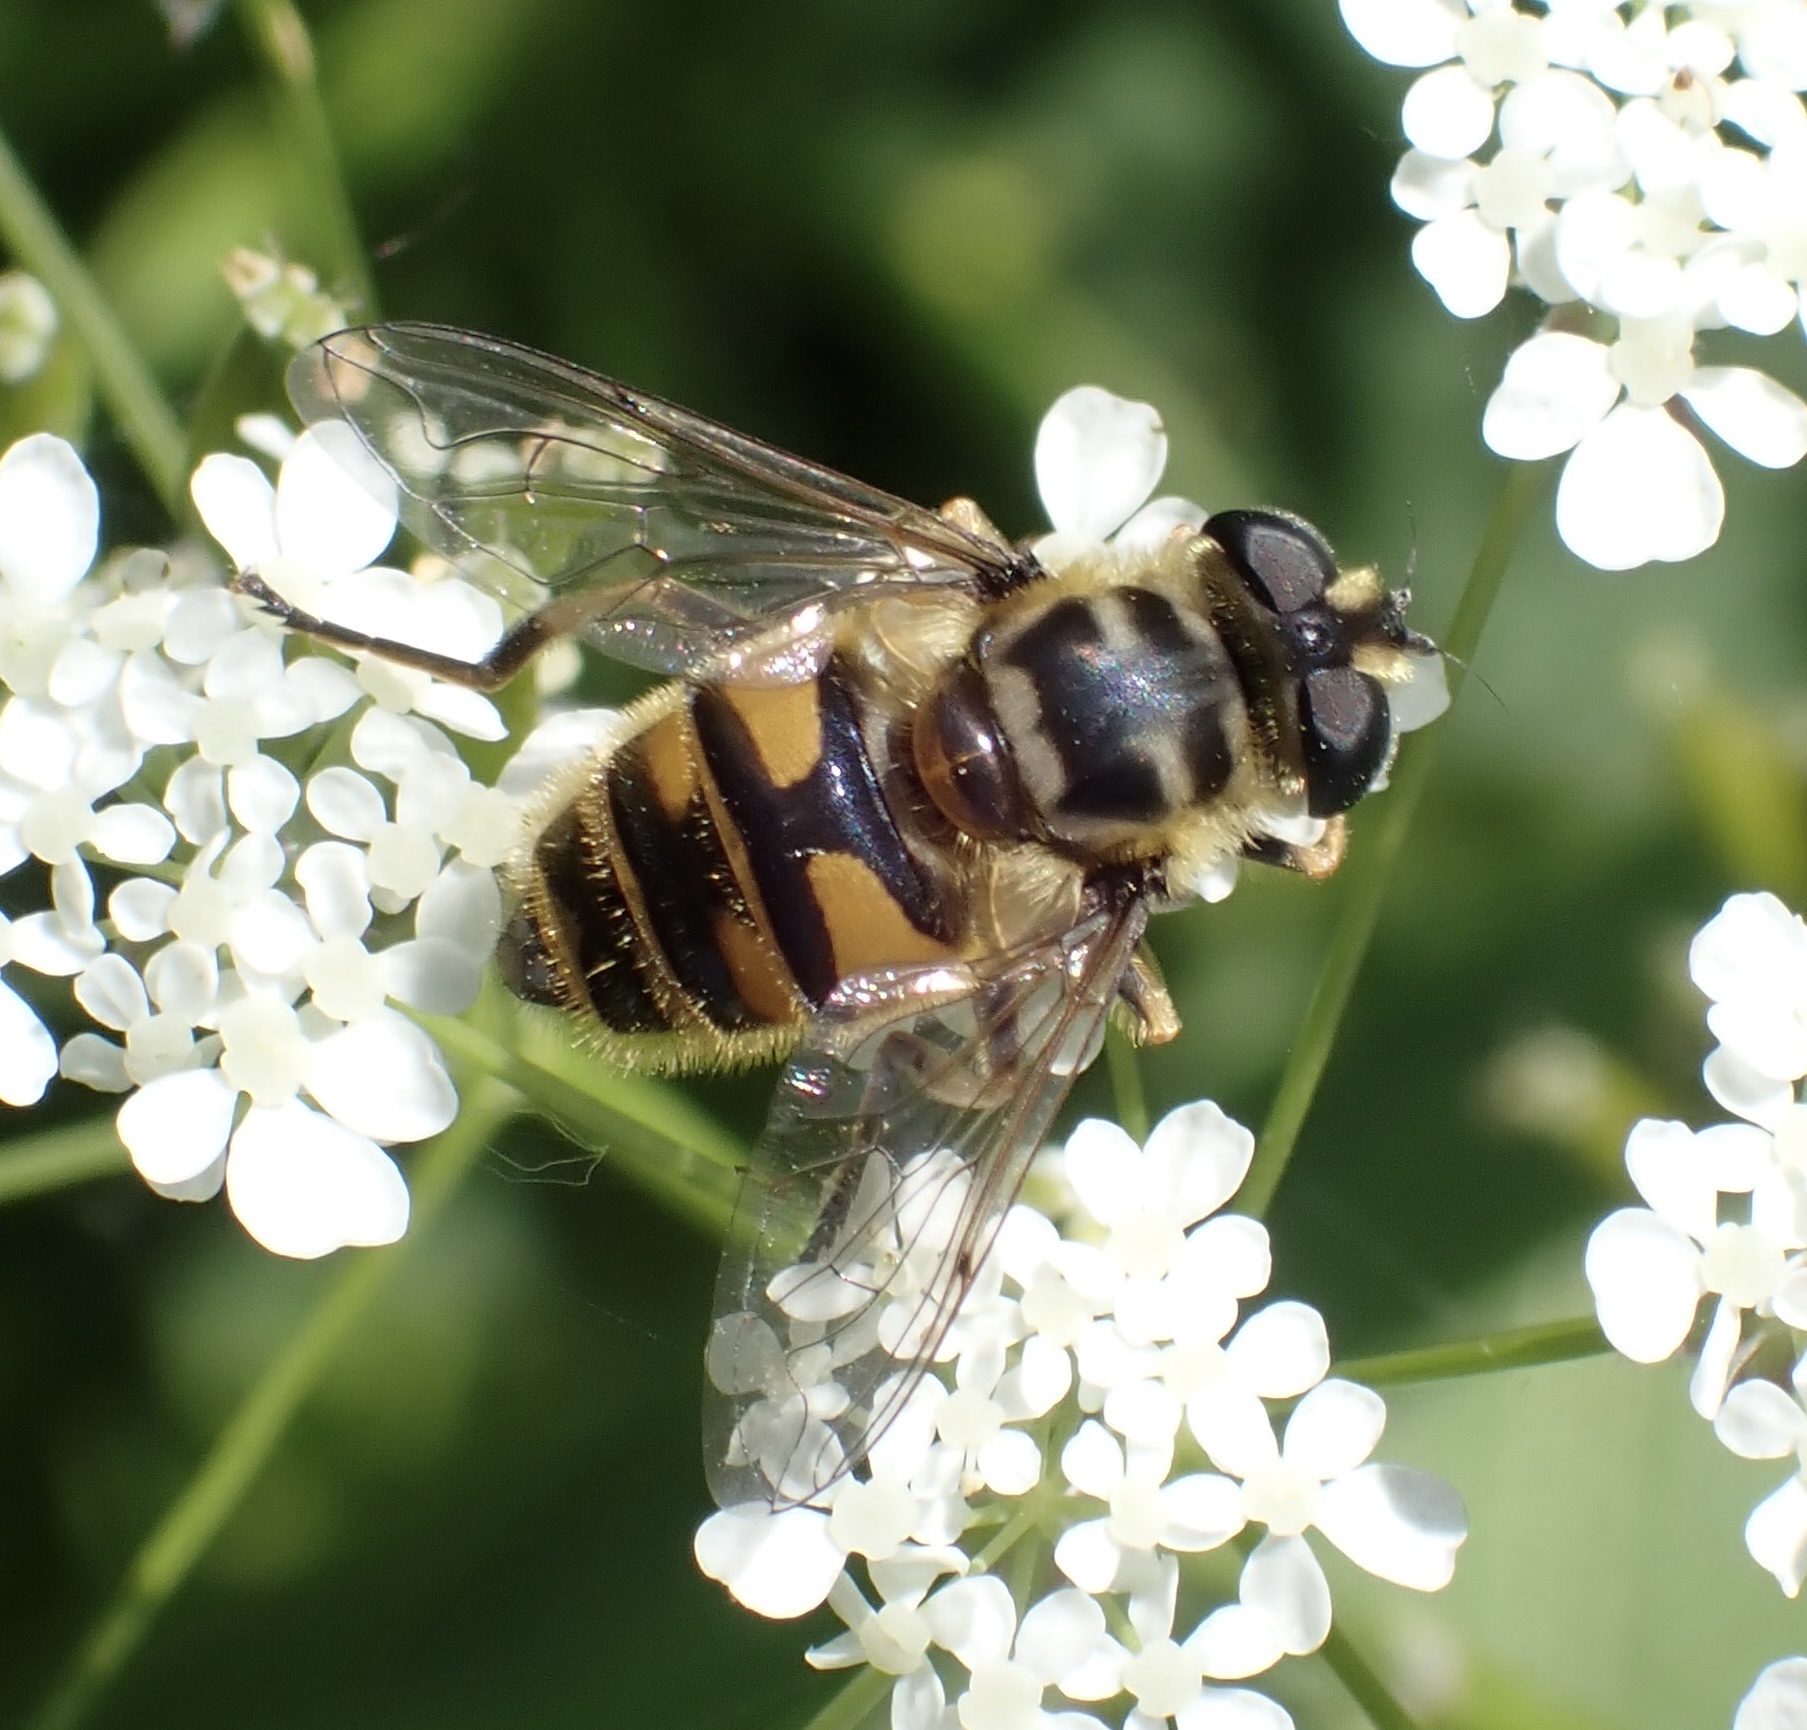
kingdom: Animalia
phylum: Arthropoda
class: Insecta
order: Diptera
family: Syrphidae
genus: Myathropa
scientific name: Myathropa florea
